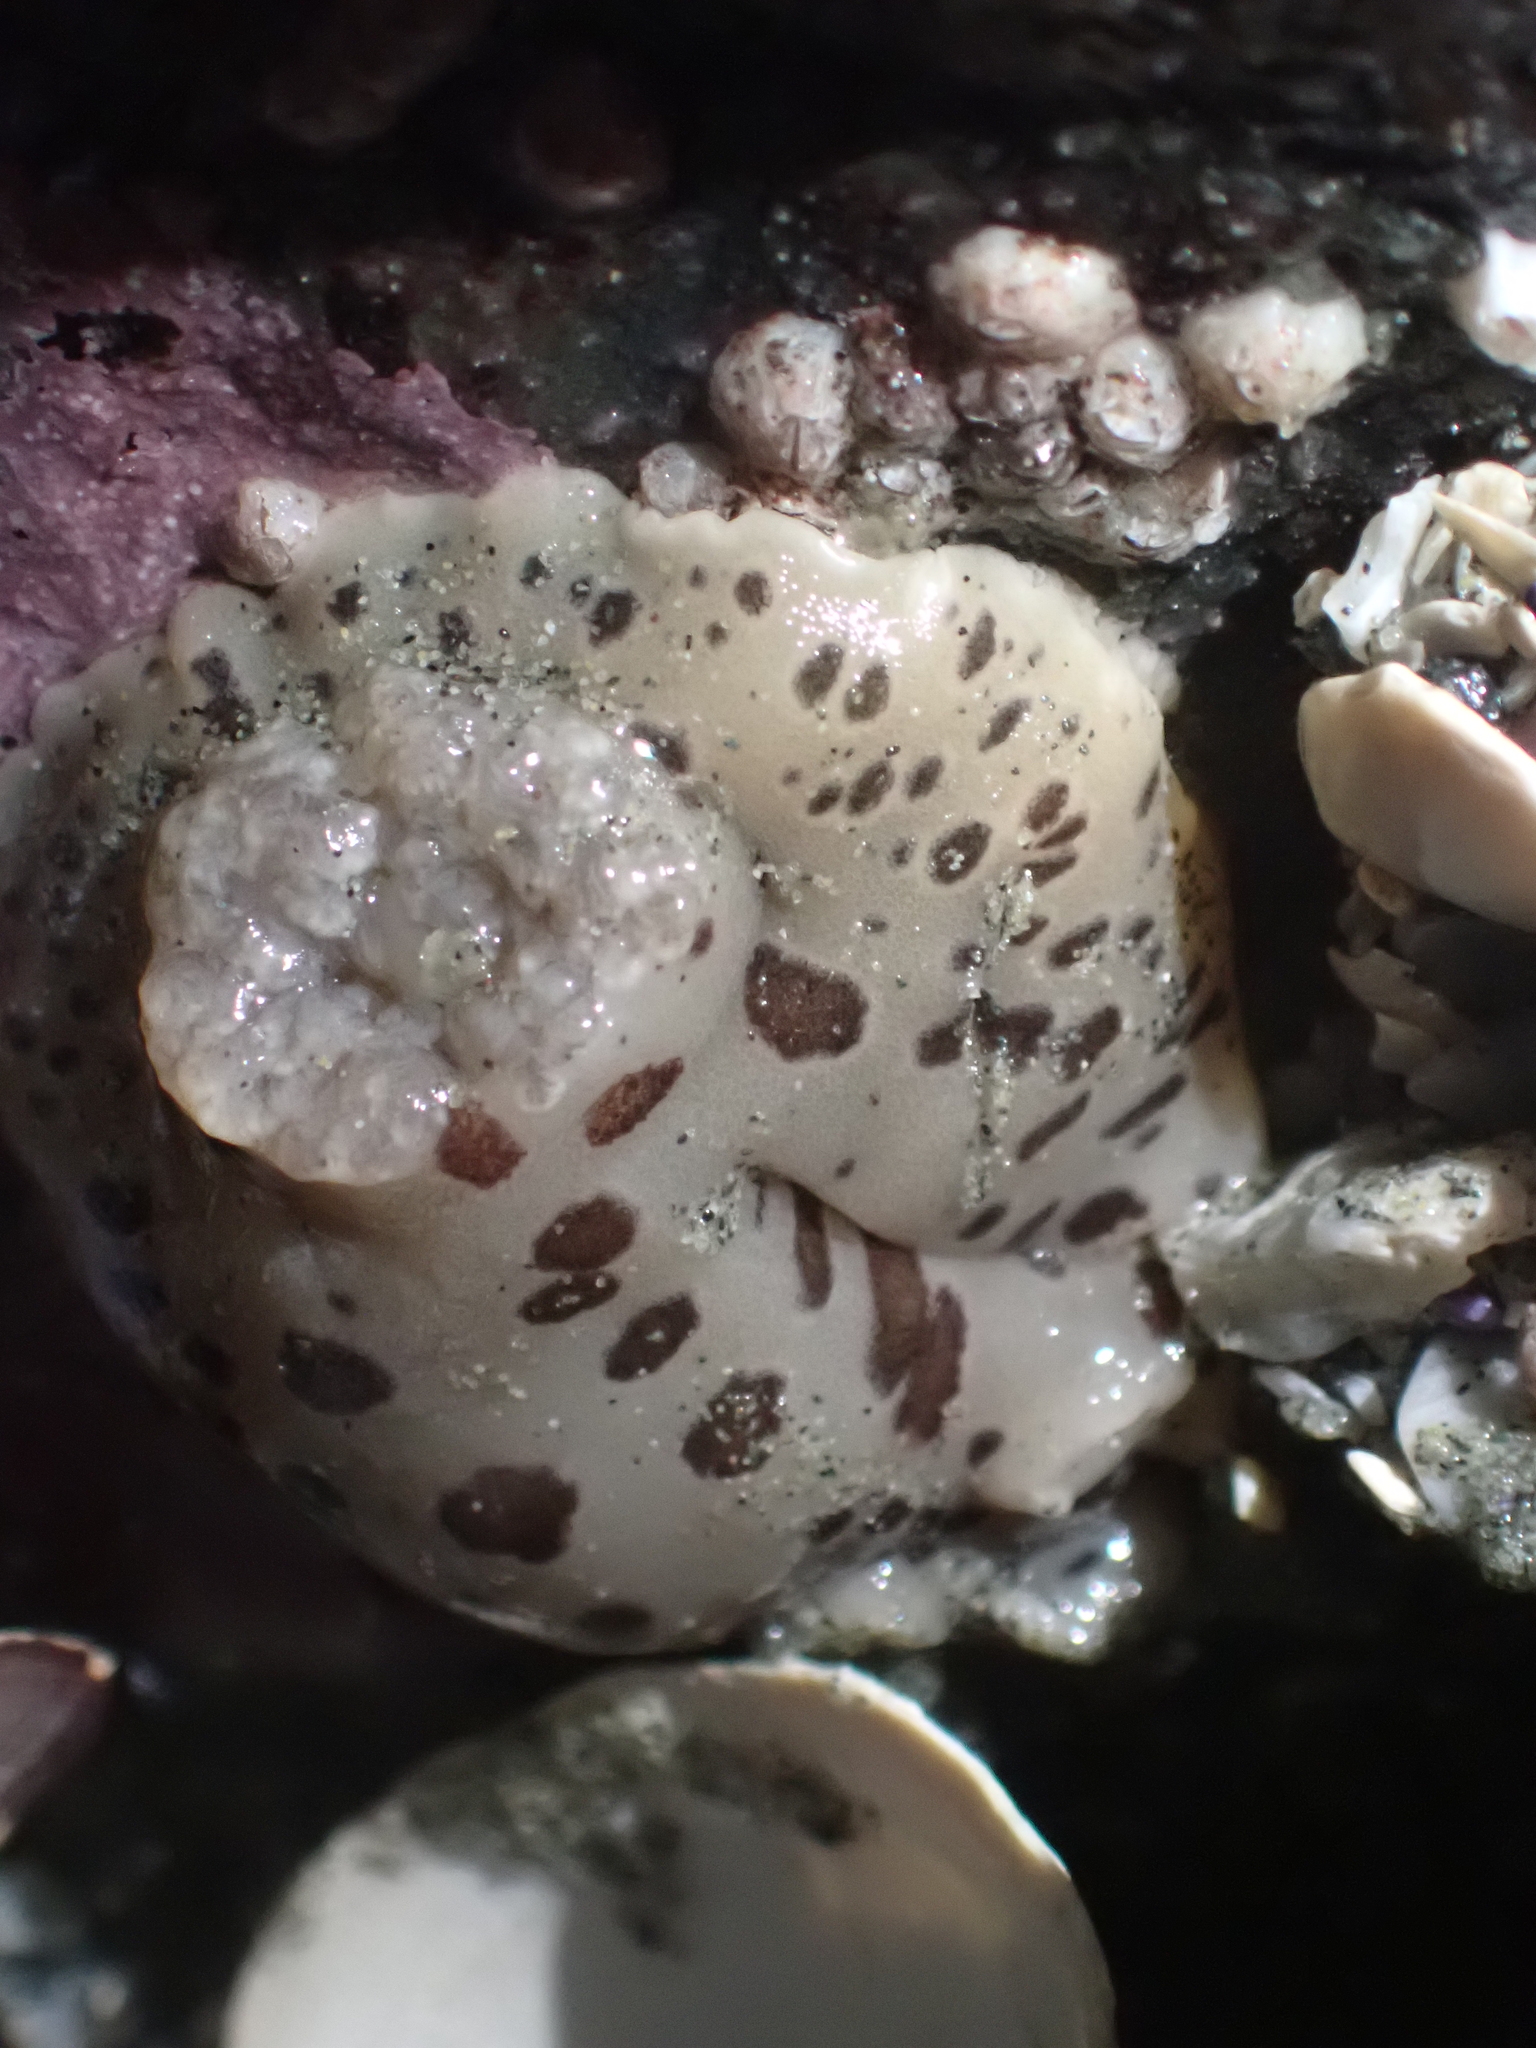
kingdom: Animalia
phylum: Mollusca
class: Gastropoda
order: Nudibranchia
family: Discodorididae
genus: Diaulula
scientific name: Diaulula odonoghuei
